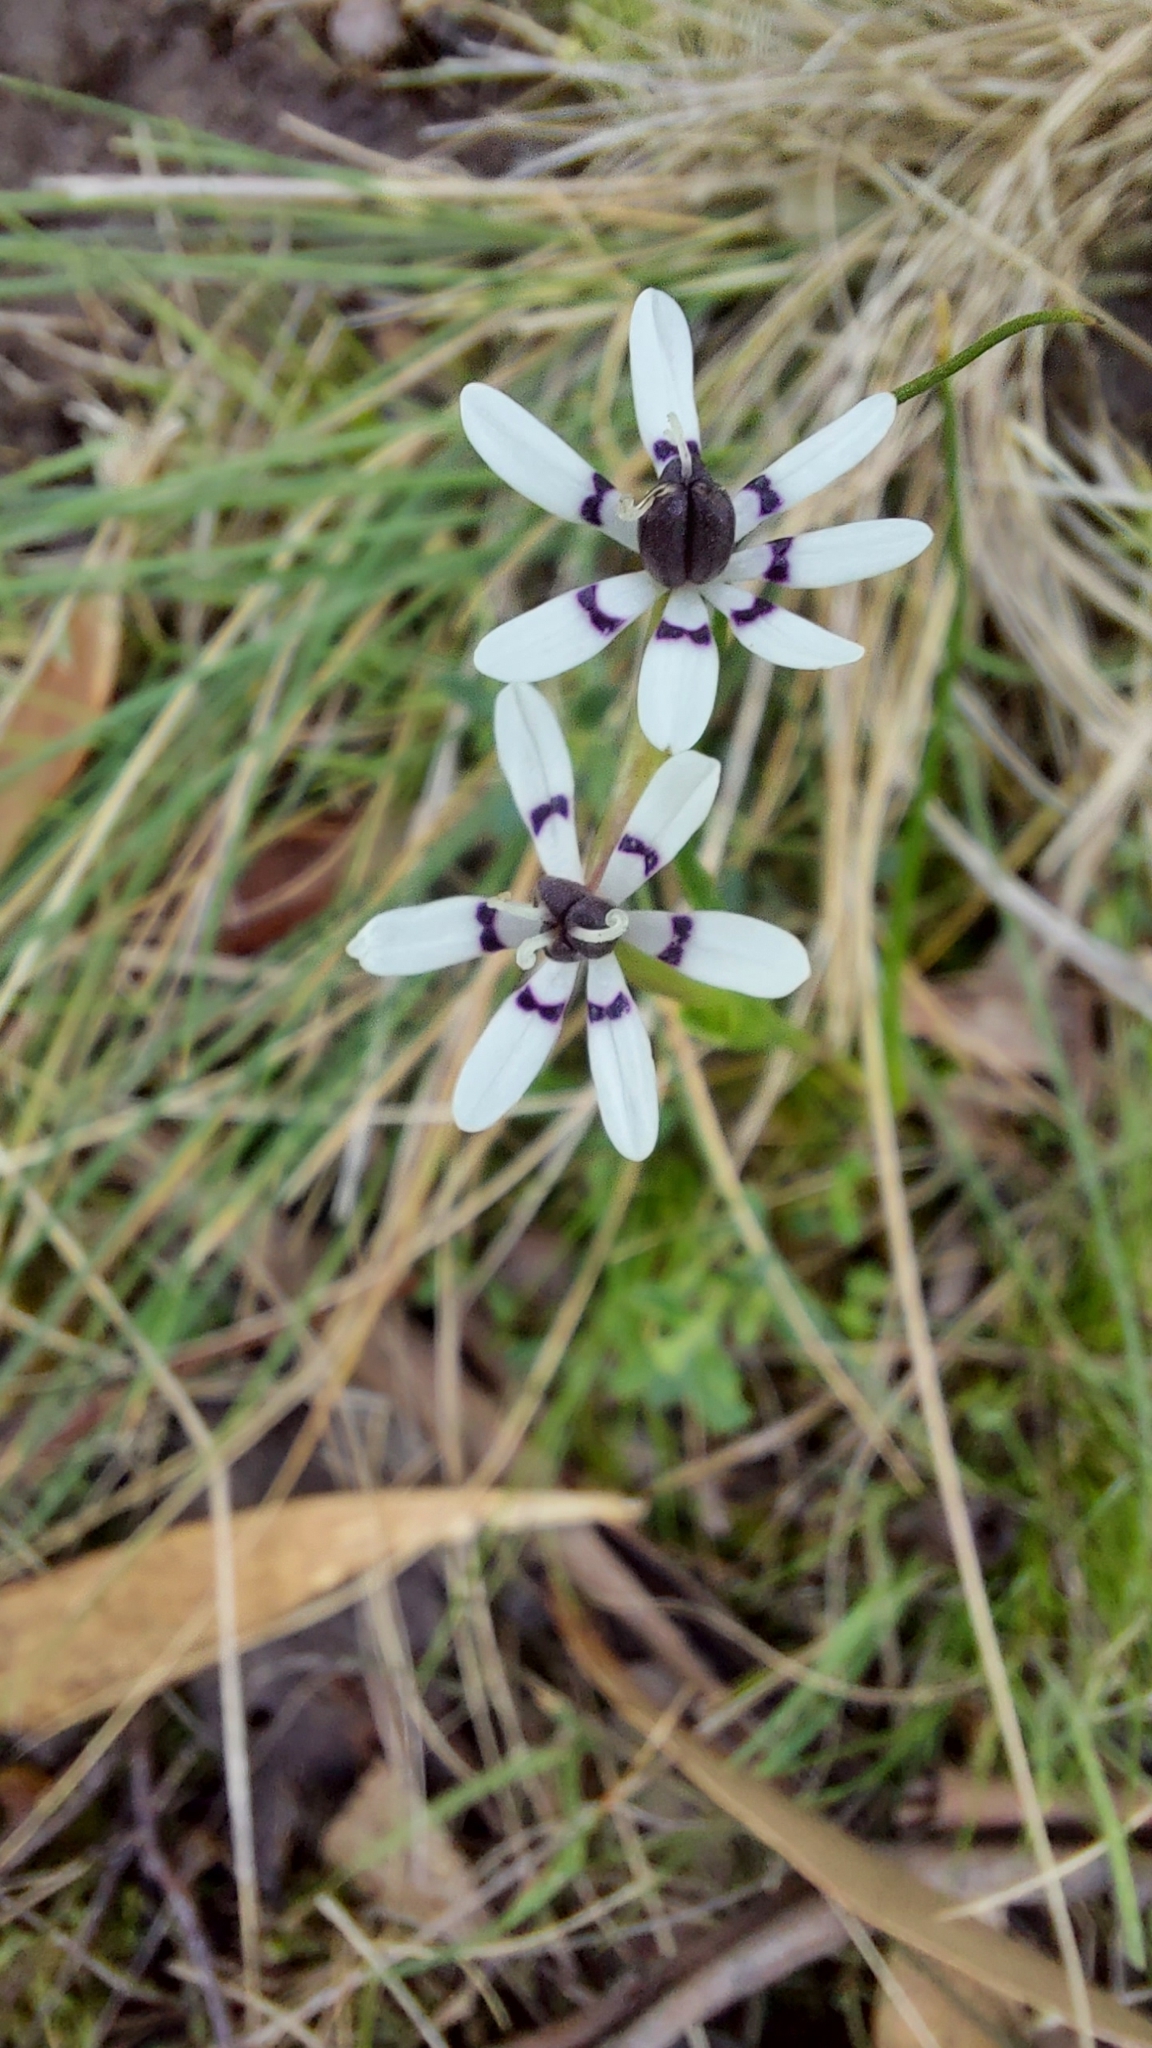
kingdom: Plantae
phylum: Tracheophyta
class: Liliopsida
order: Liliales
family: Colchicaceae
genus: Wurmbea
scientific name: Wurmbea dioica
